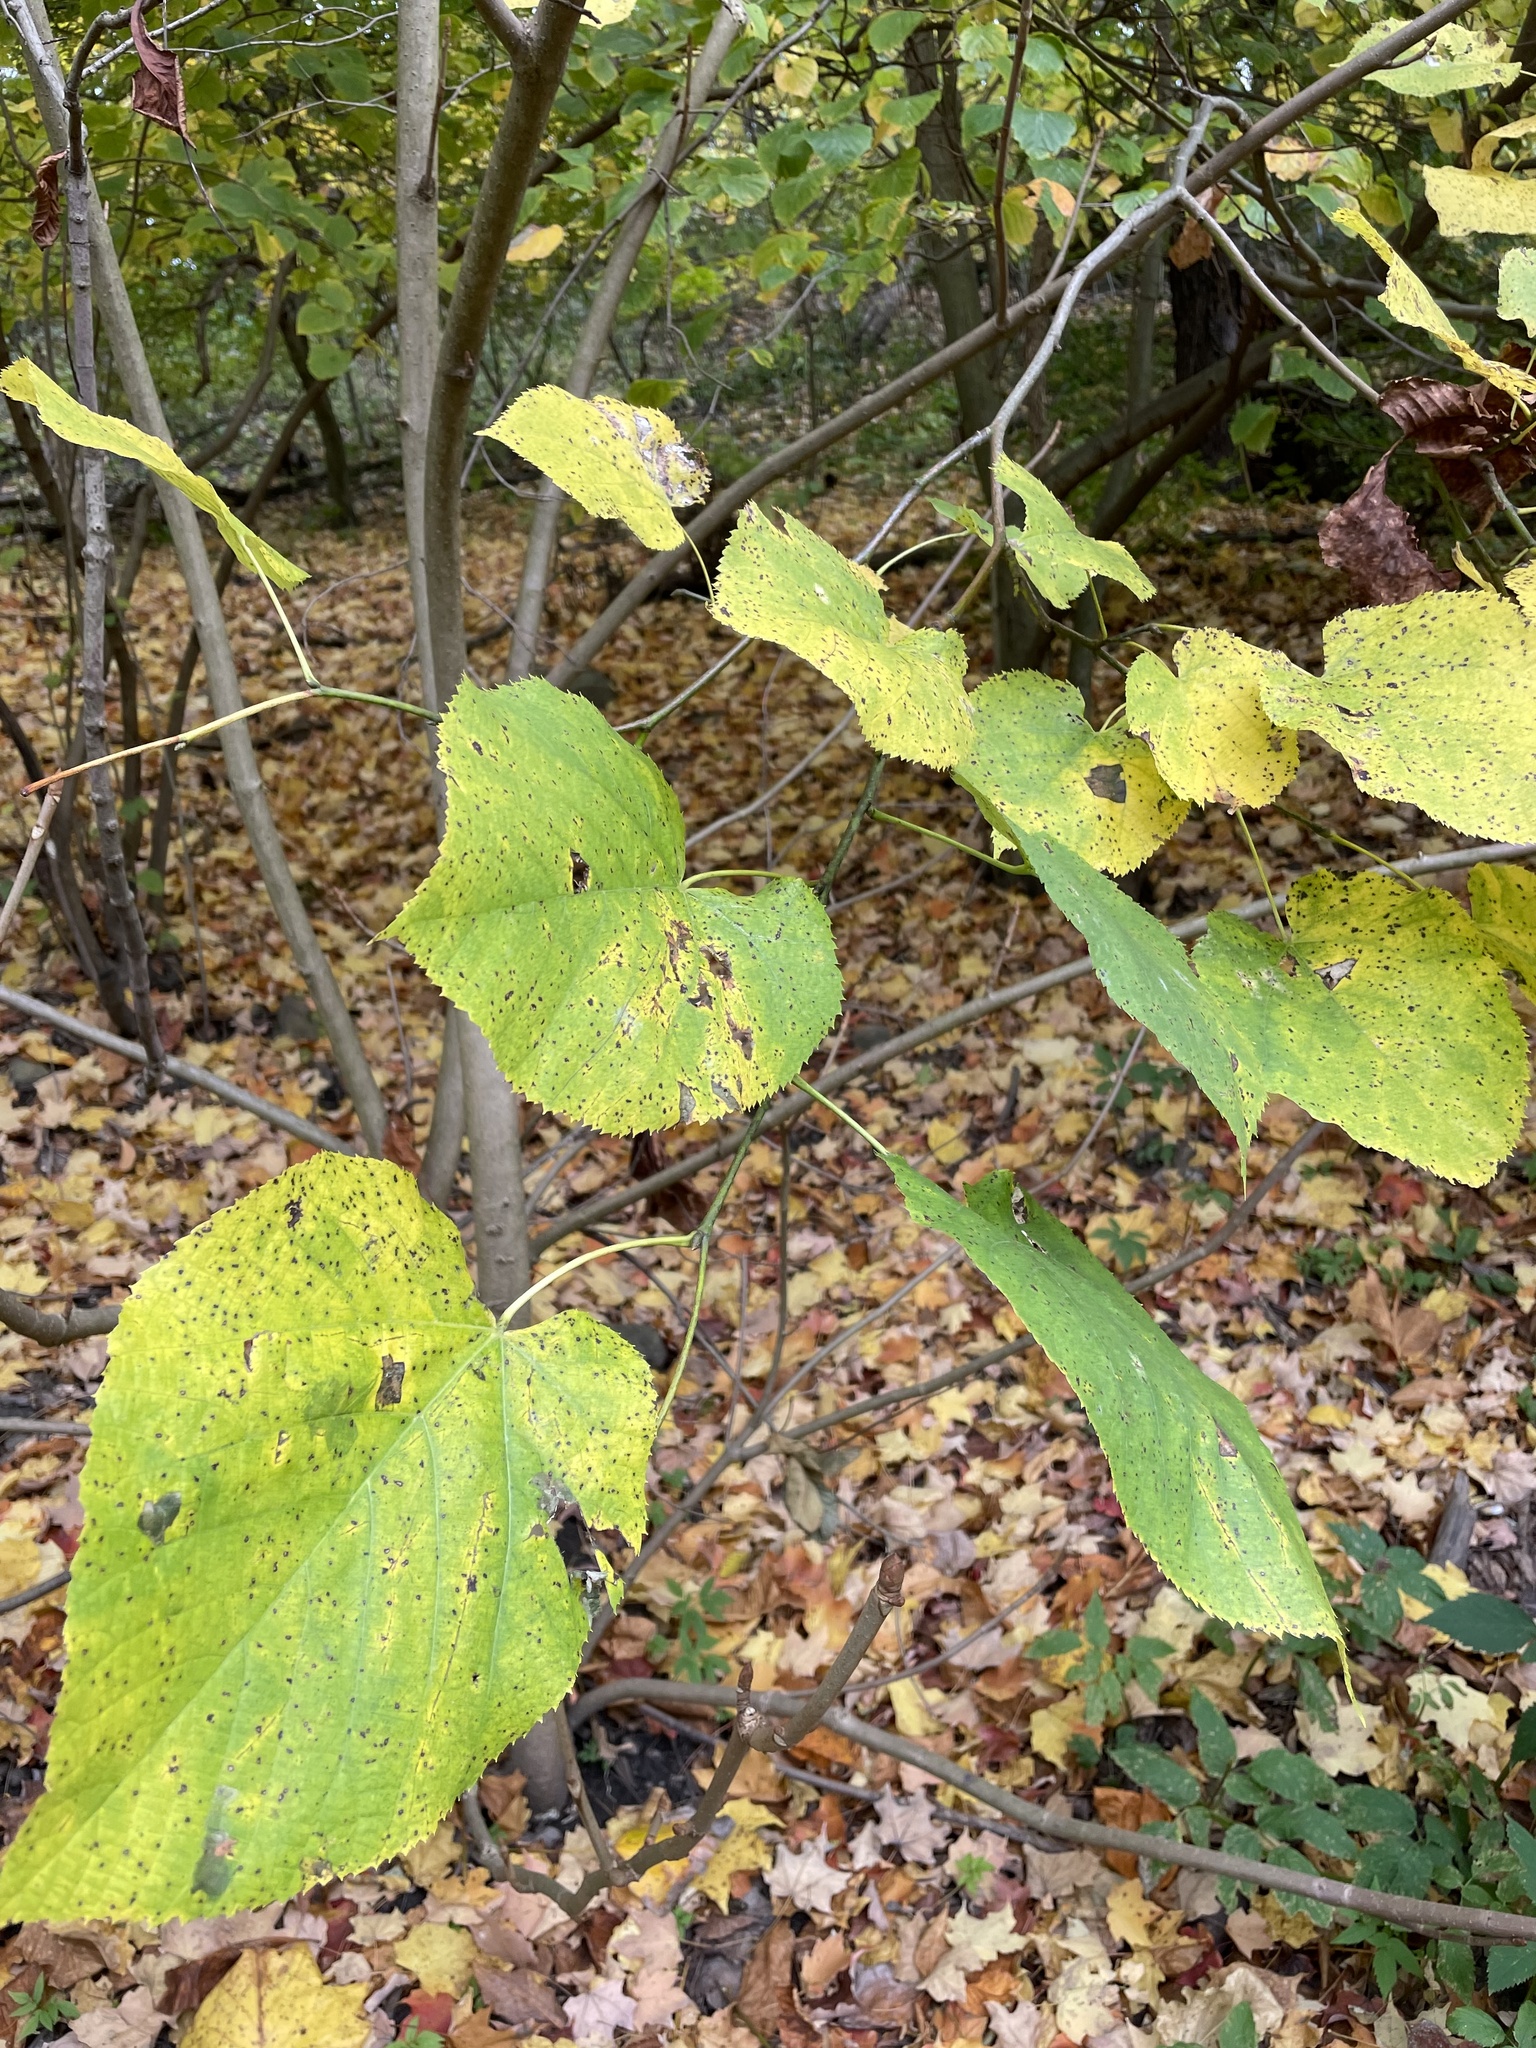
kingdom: Plantae
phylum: Tracheophyta
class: Magnoliopsida
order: Malvales
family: Malvaceae
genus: Tilia
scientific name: Tilia americana
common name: Basswood
